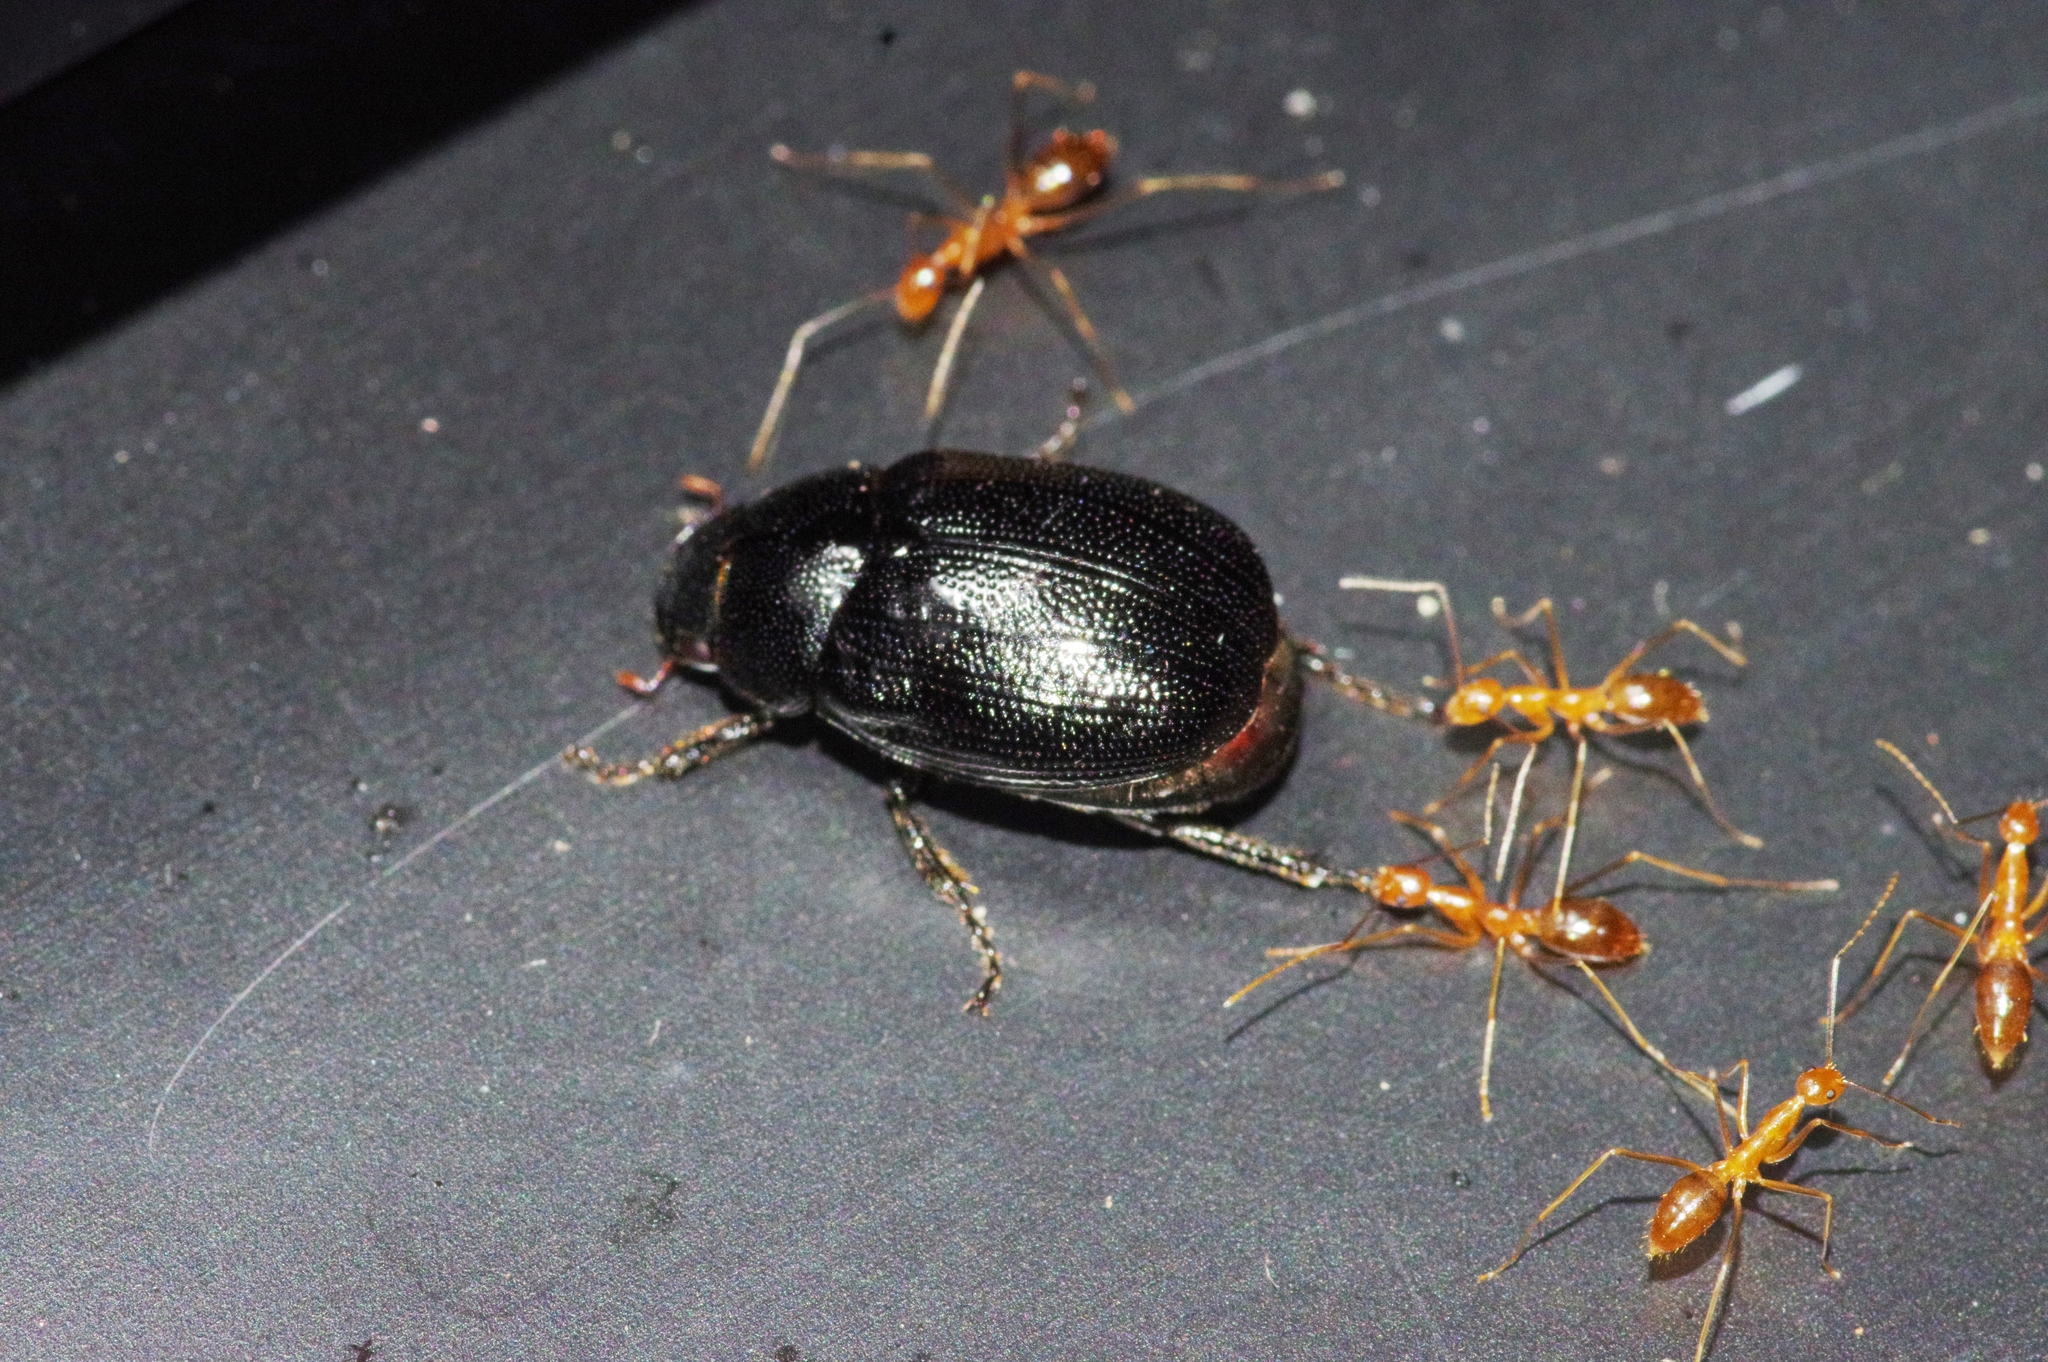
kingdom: Animalia
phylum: Arthropoda
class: Insecta
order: Hymenoptera
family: Formicidae
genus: Anoplolepis
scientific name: Anoplolepis gracilipes
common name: Ant
